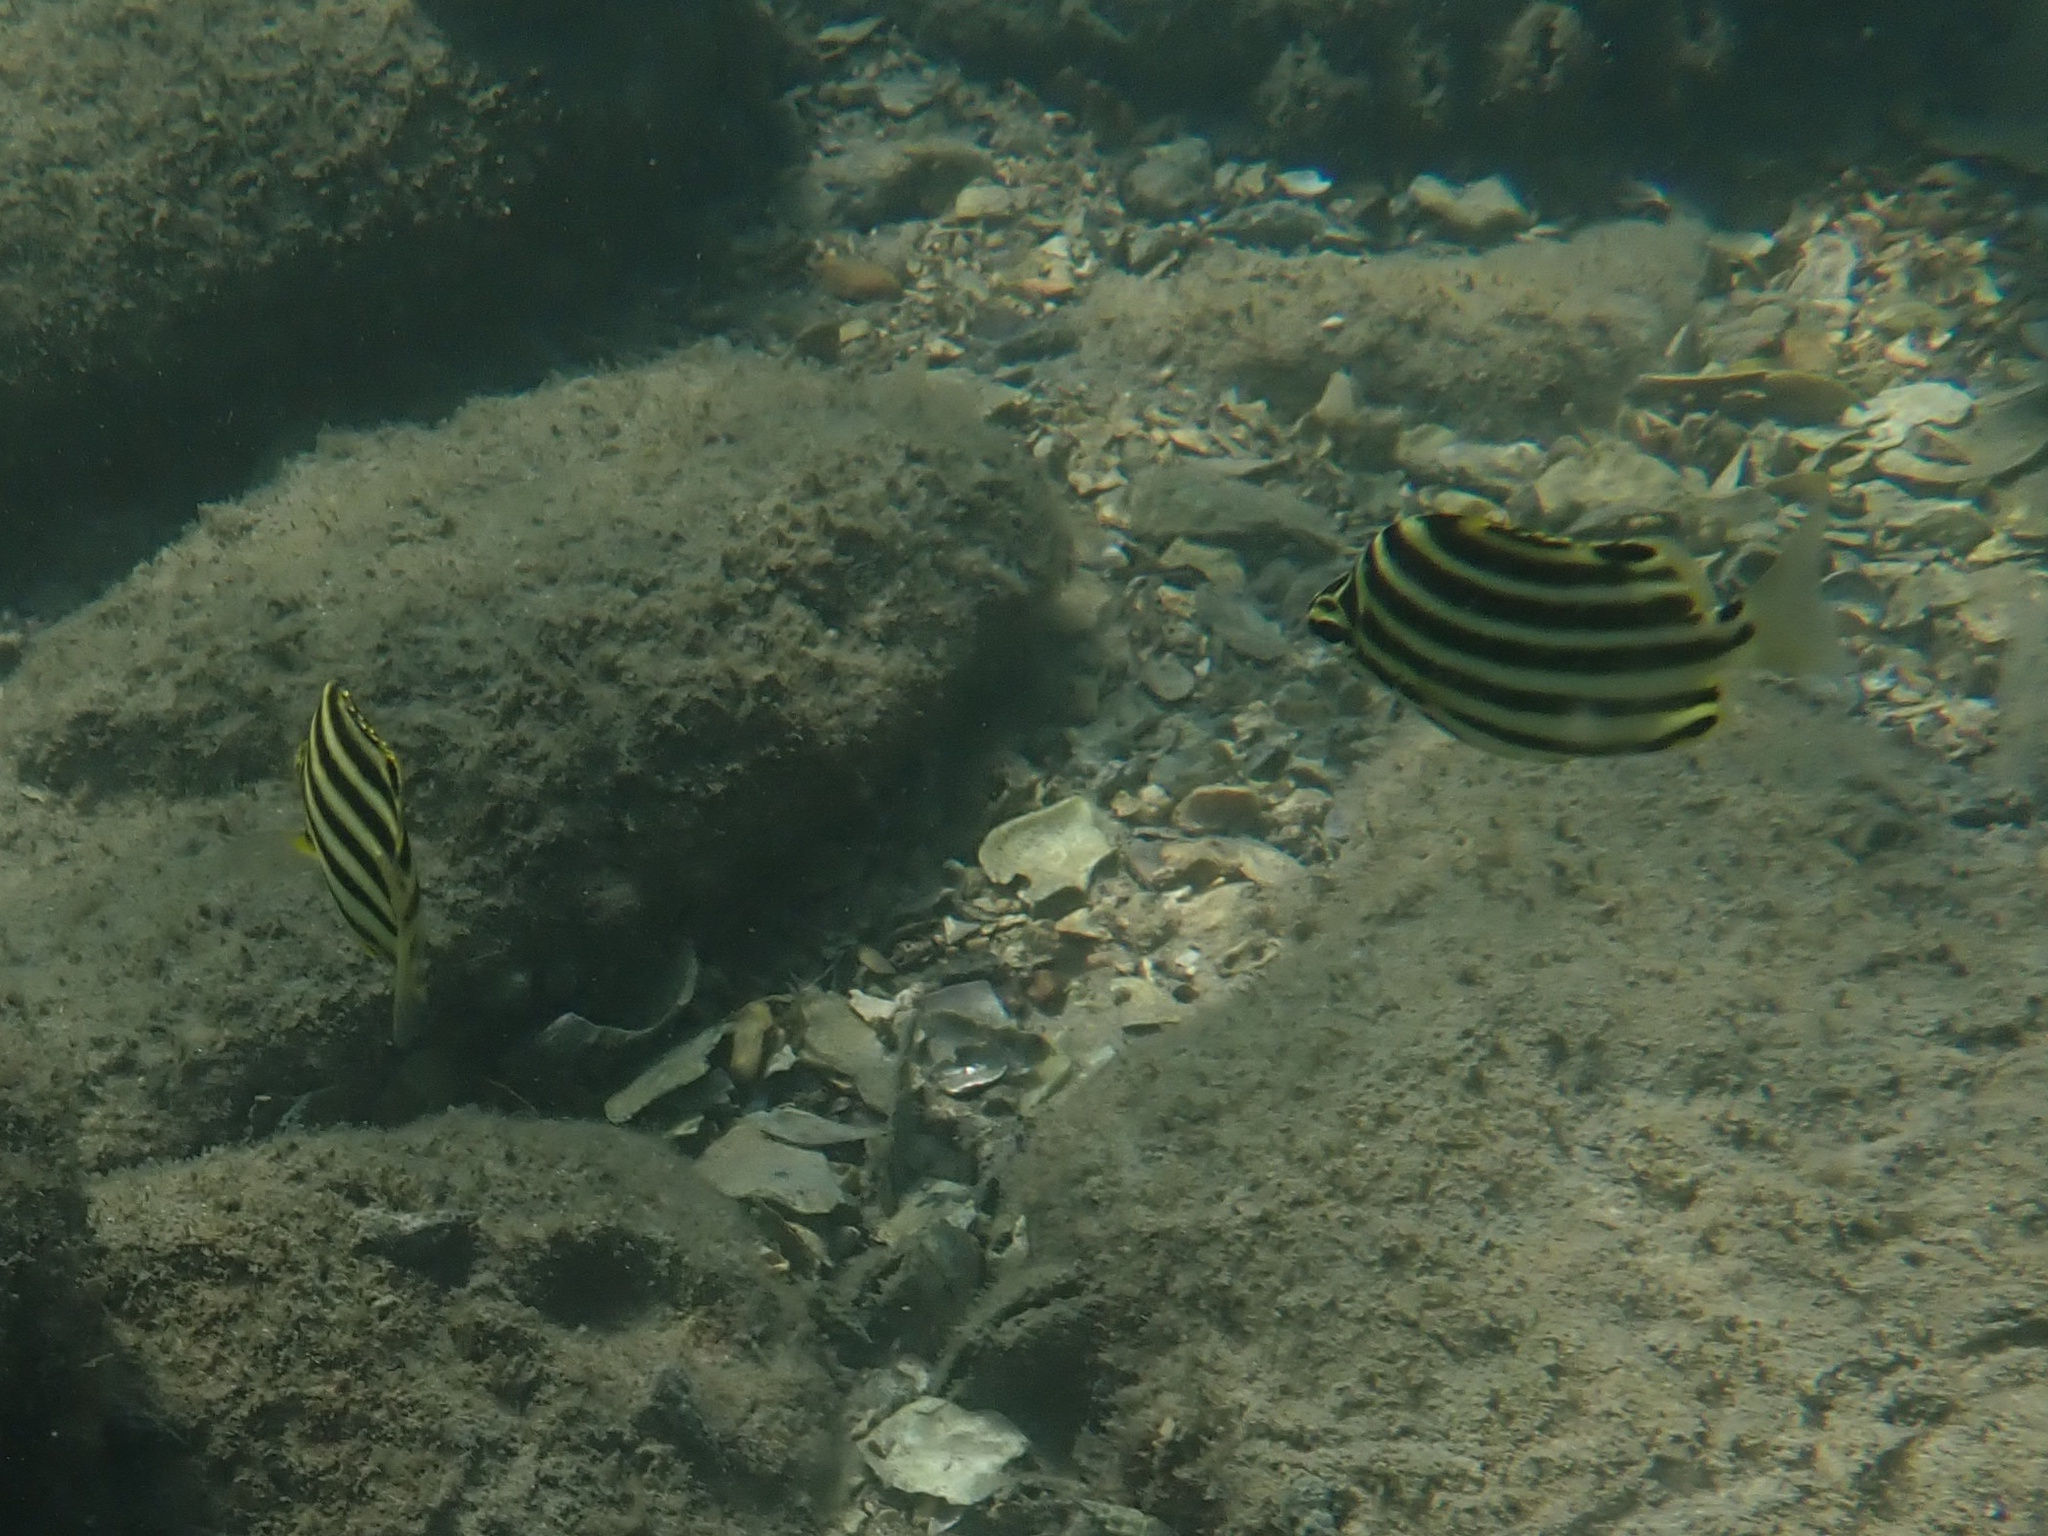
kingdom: Animalia
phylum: Chordata
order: Perciformes
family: Kyphosidae
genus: Microcanthus
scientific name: Microcanthus joyceae
